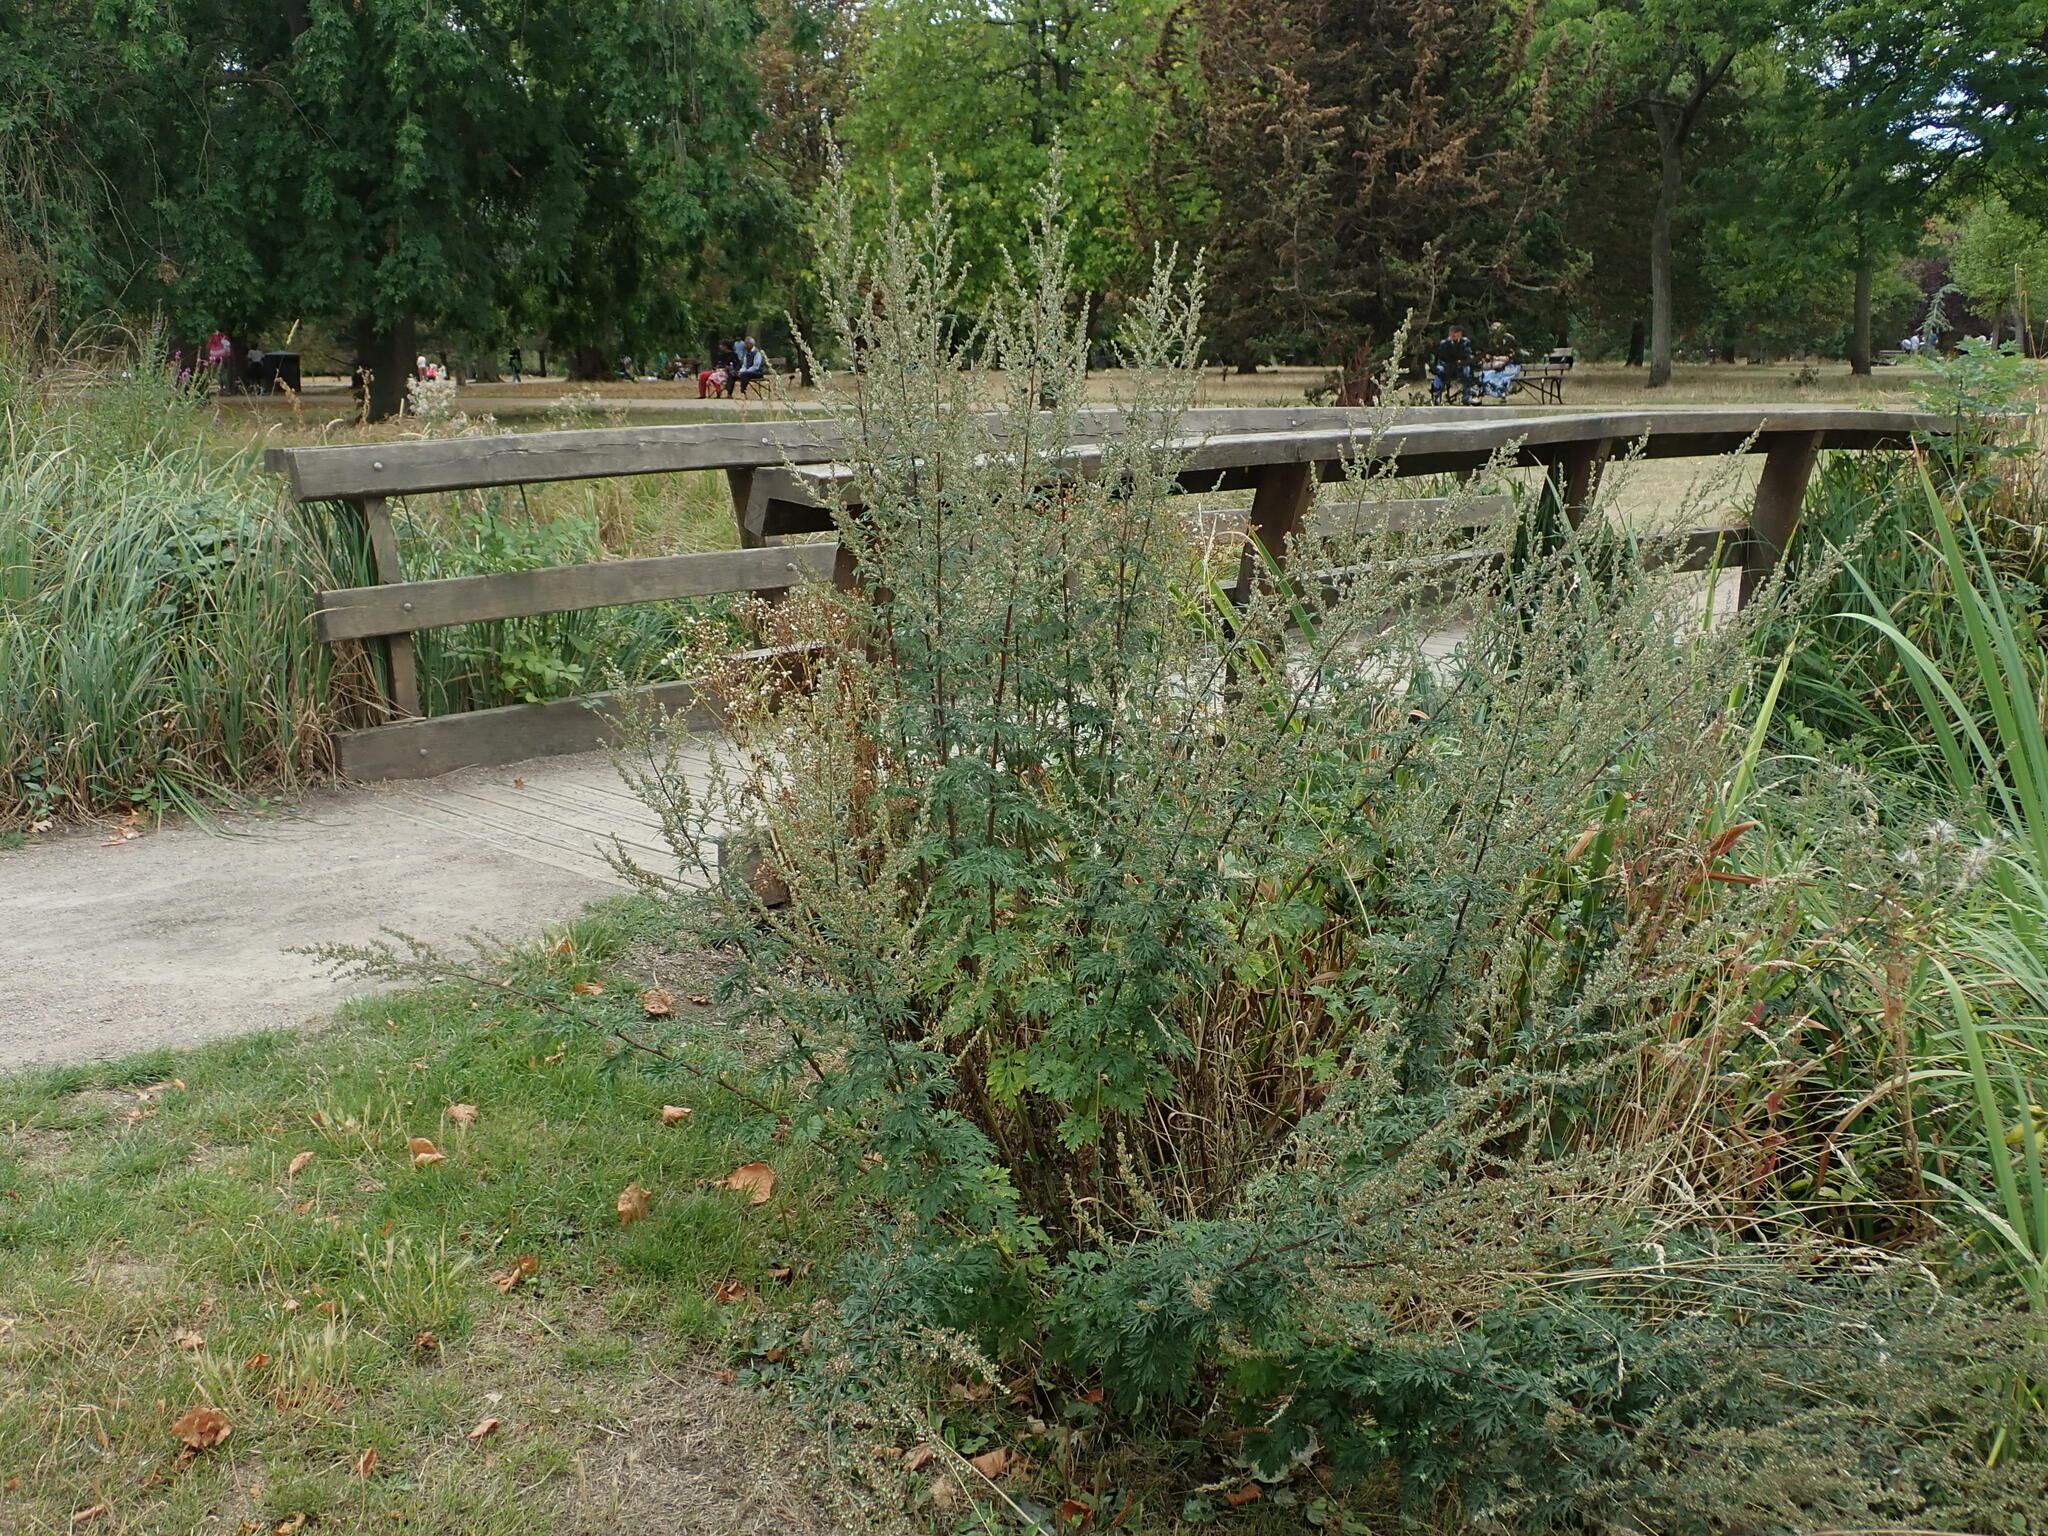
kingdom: Plantae
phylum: Tracheophyta
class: Magnoliopsida
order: Asterales
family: Asteraceae
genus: Artemisia
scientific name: Artemisia vulgaris
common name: Mugwort
